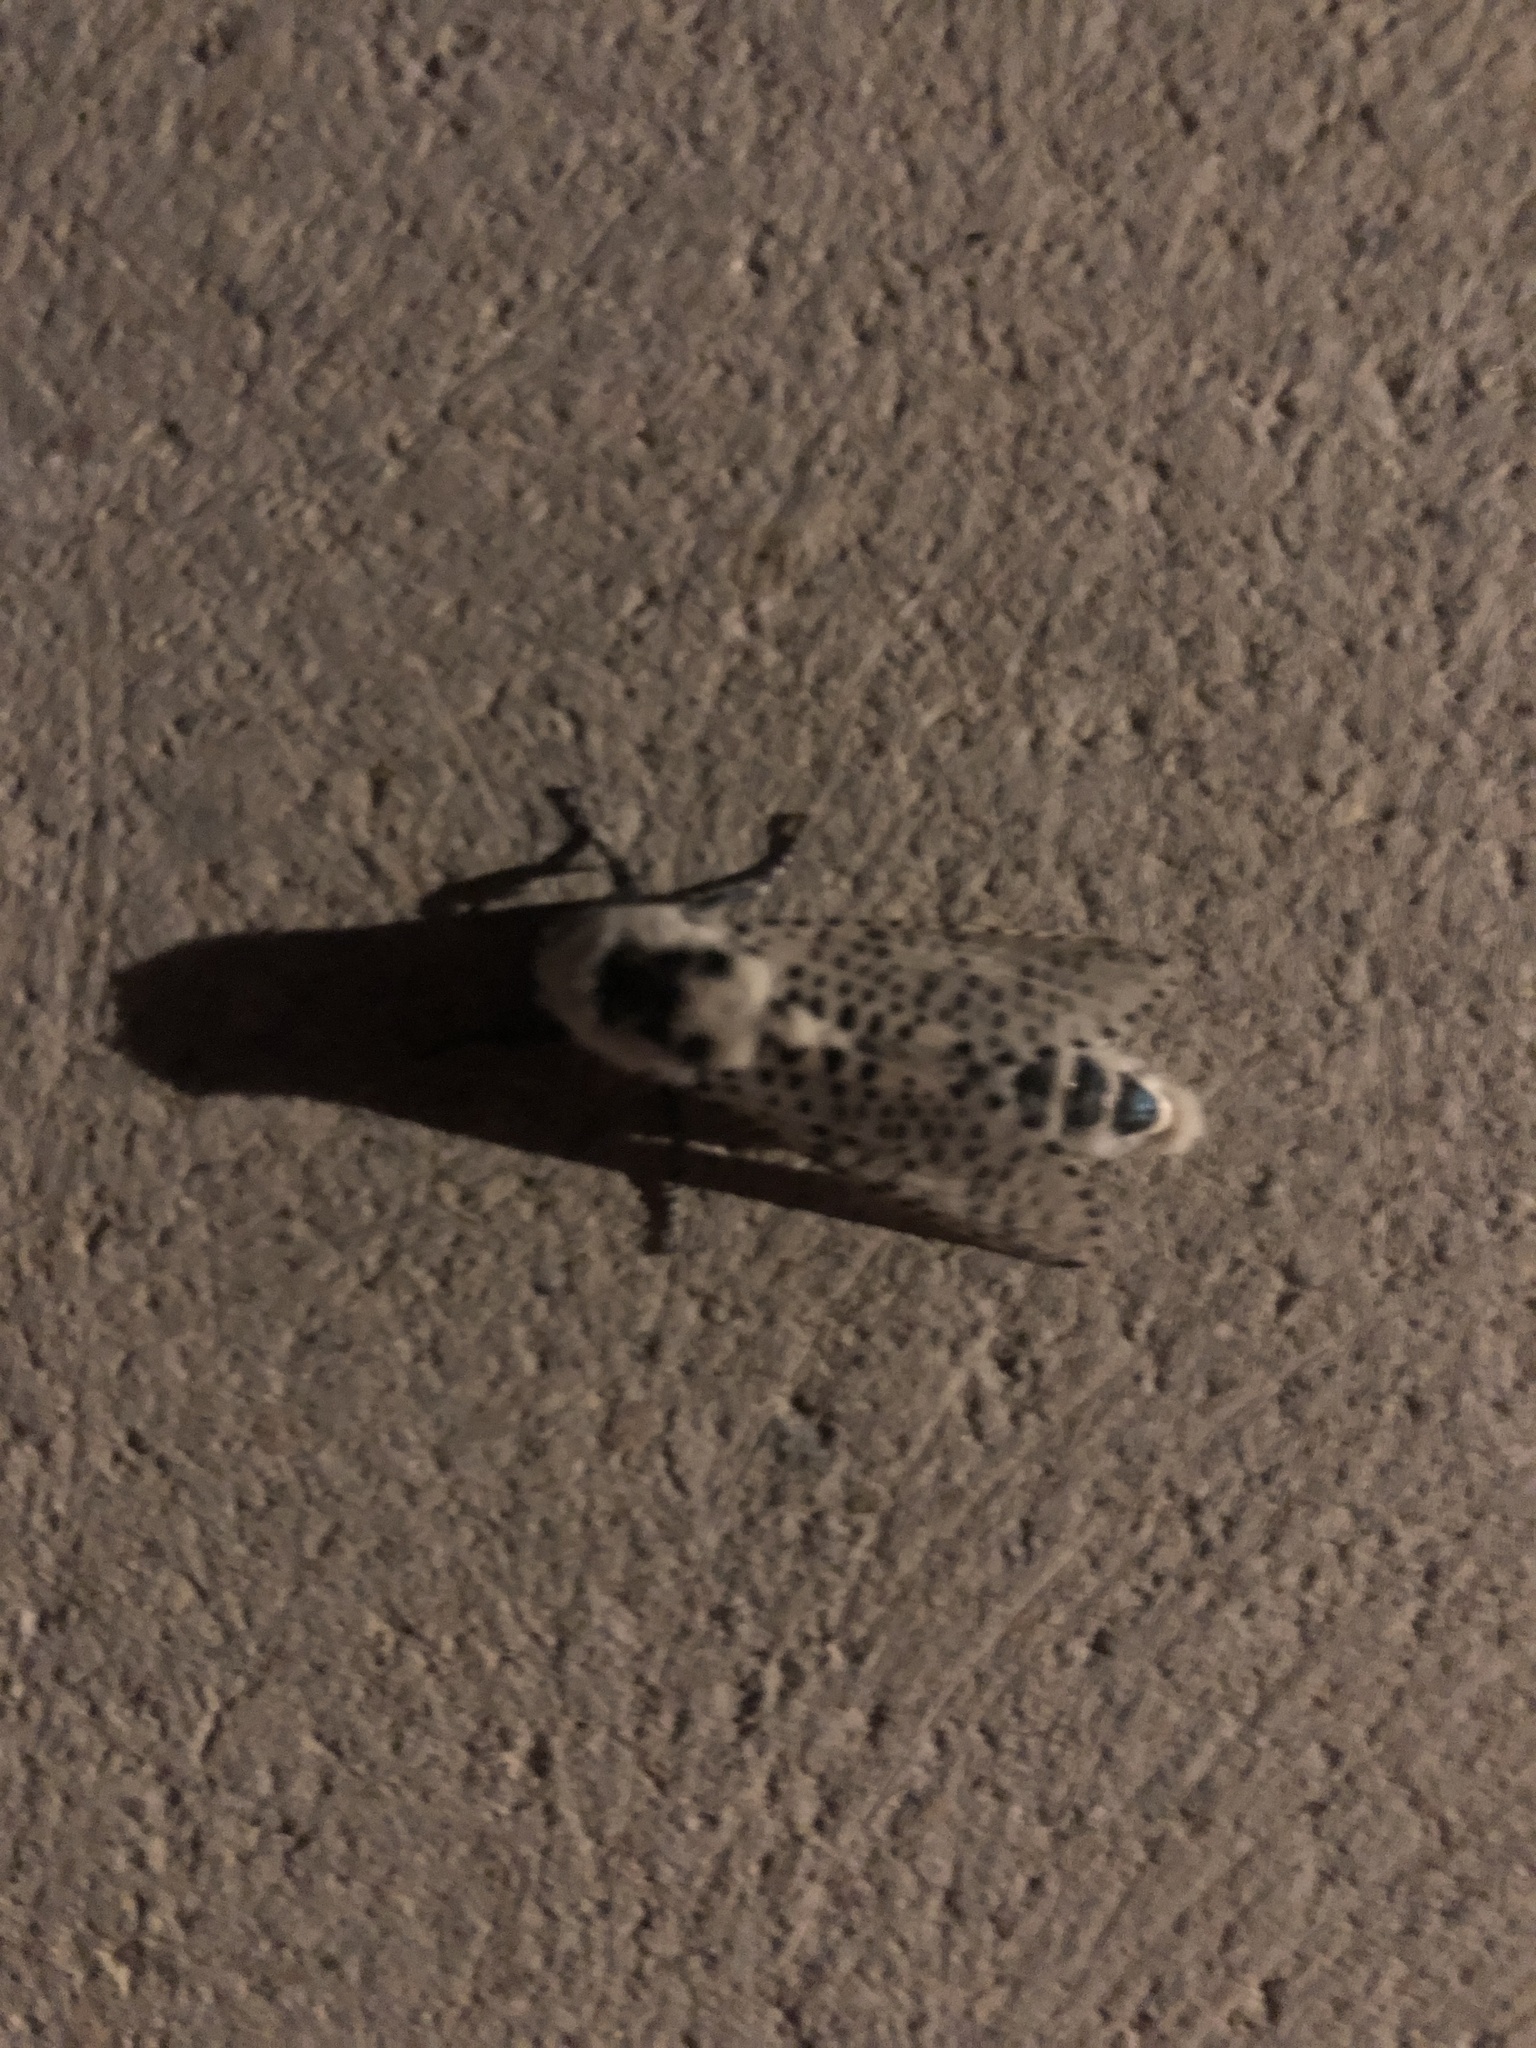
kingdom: Animalia
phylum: Arthropoda
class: Insecta
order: Lepidoptera
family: Cossidae
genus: Zeuzera
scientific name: Zeuzera pyrina
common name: Leopard moth
